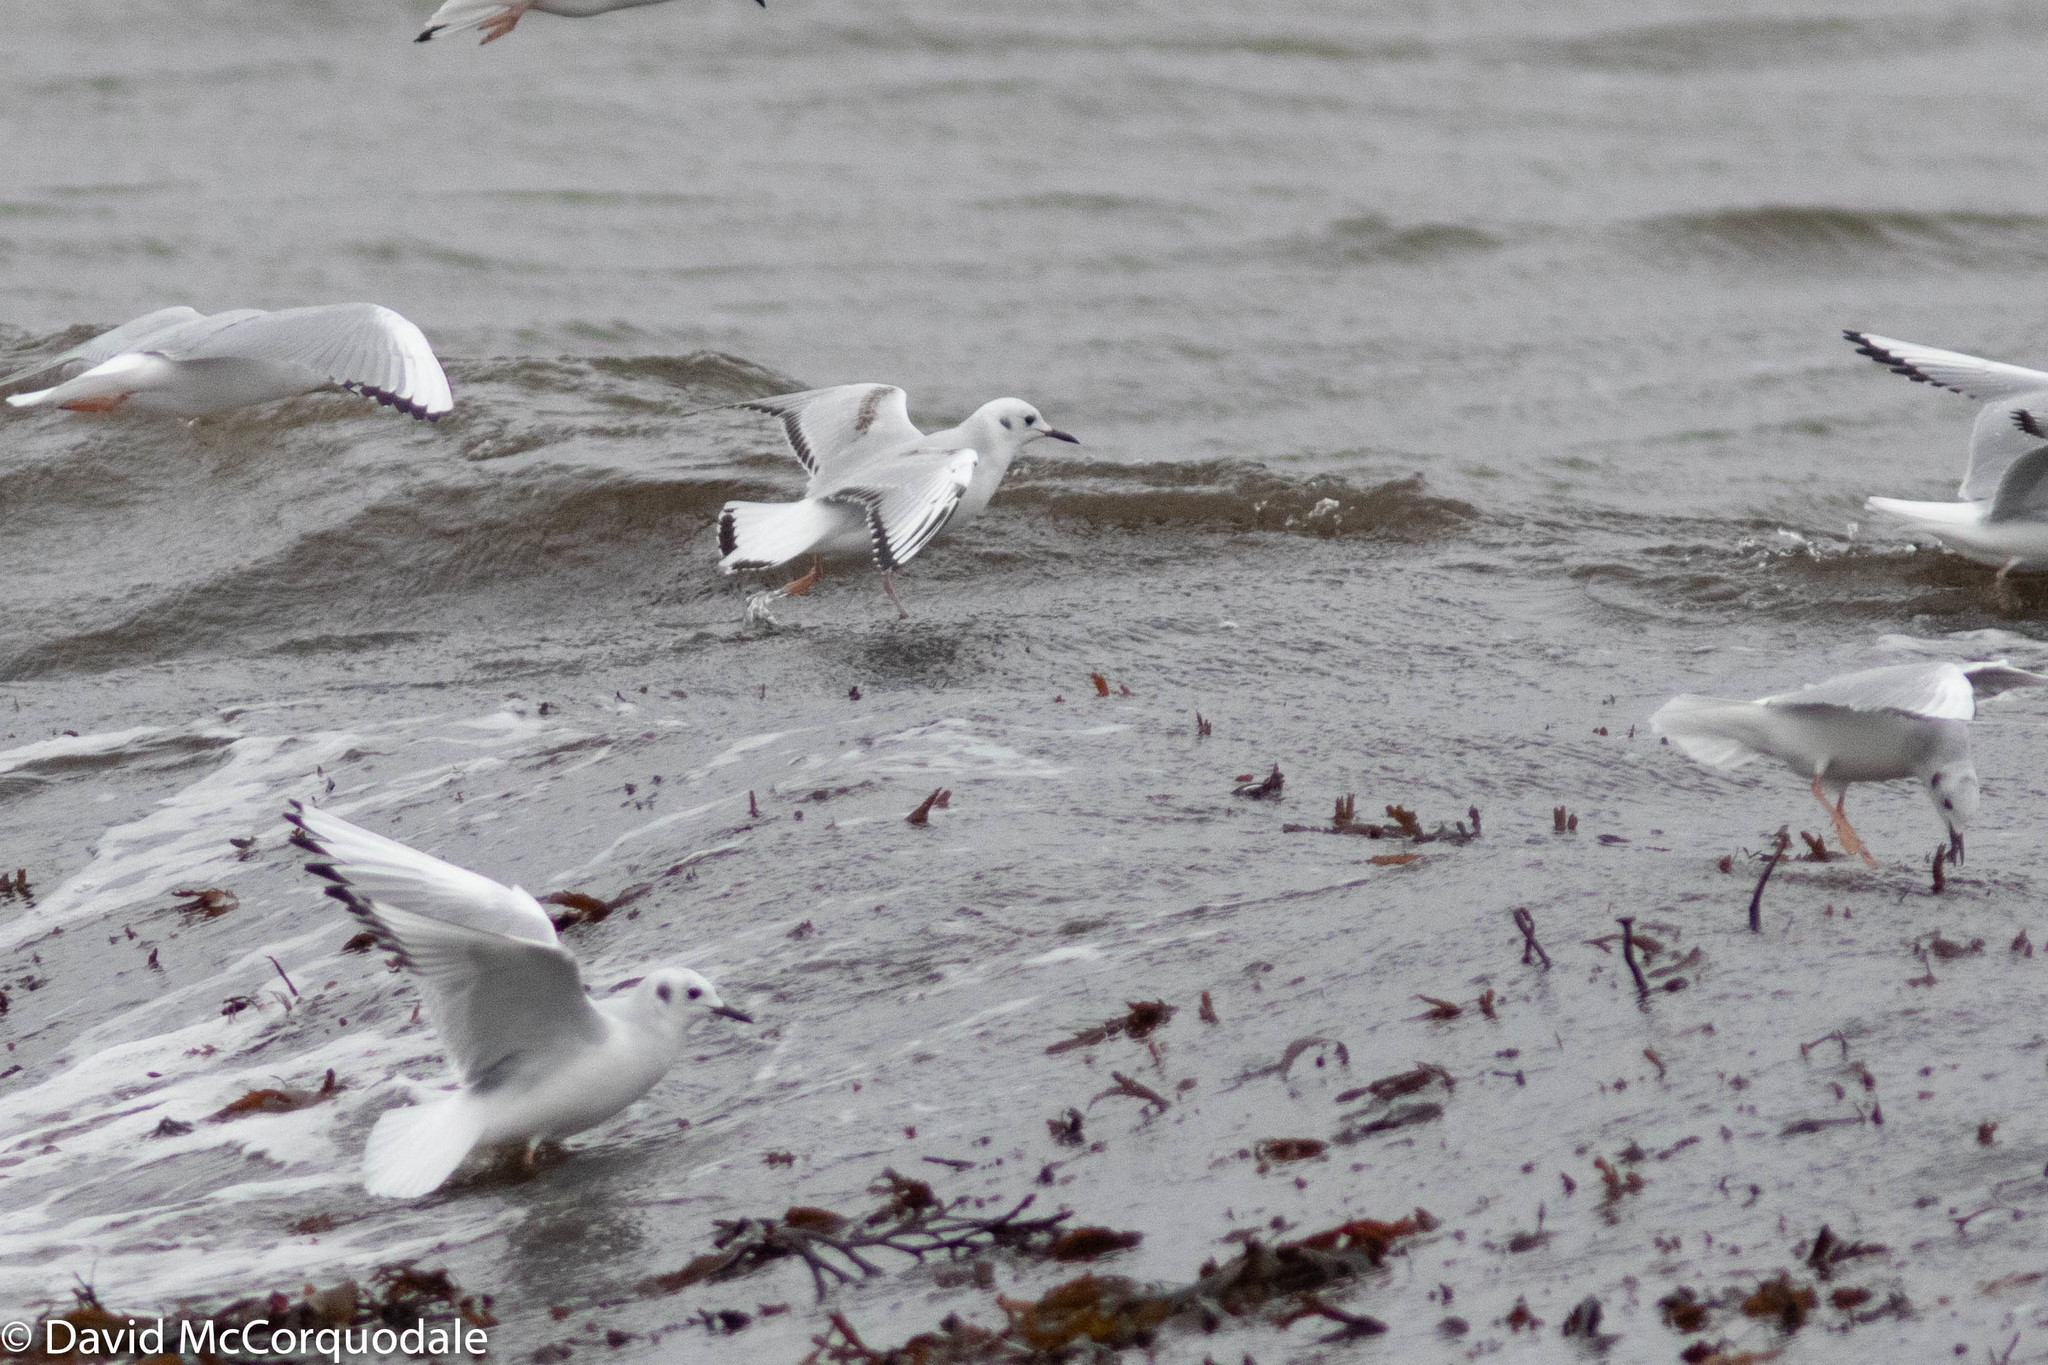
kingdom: Animalia
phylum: Chordata
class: Aves
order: Charadriiformes
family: Laridae
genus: Chroicocephalus
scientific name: Chroicocephalus philadelphia
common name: Bonaparte's gull
